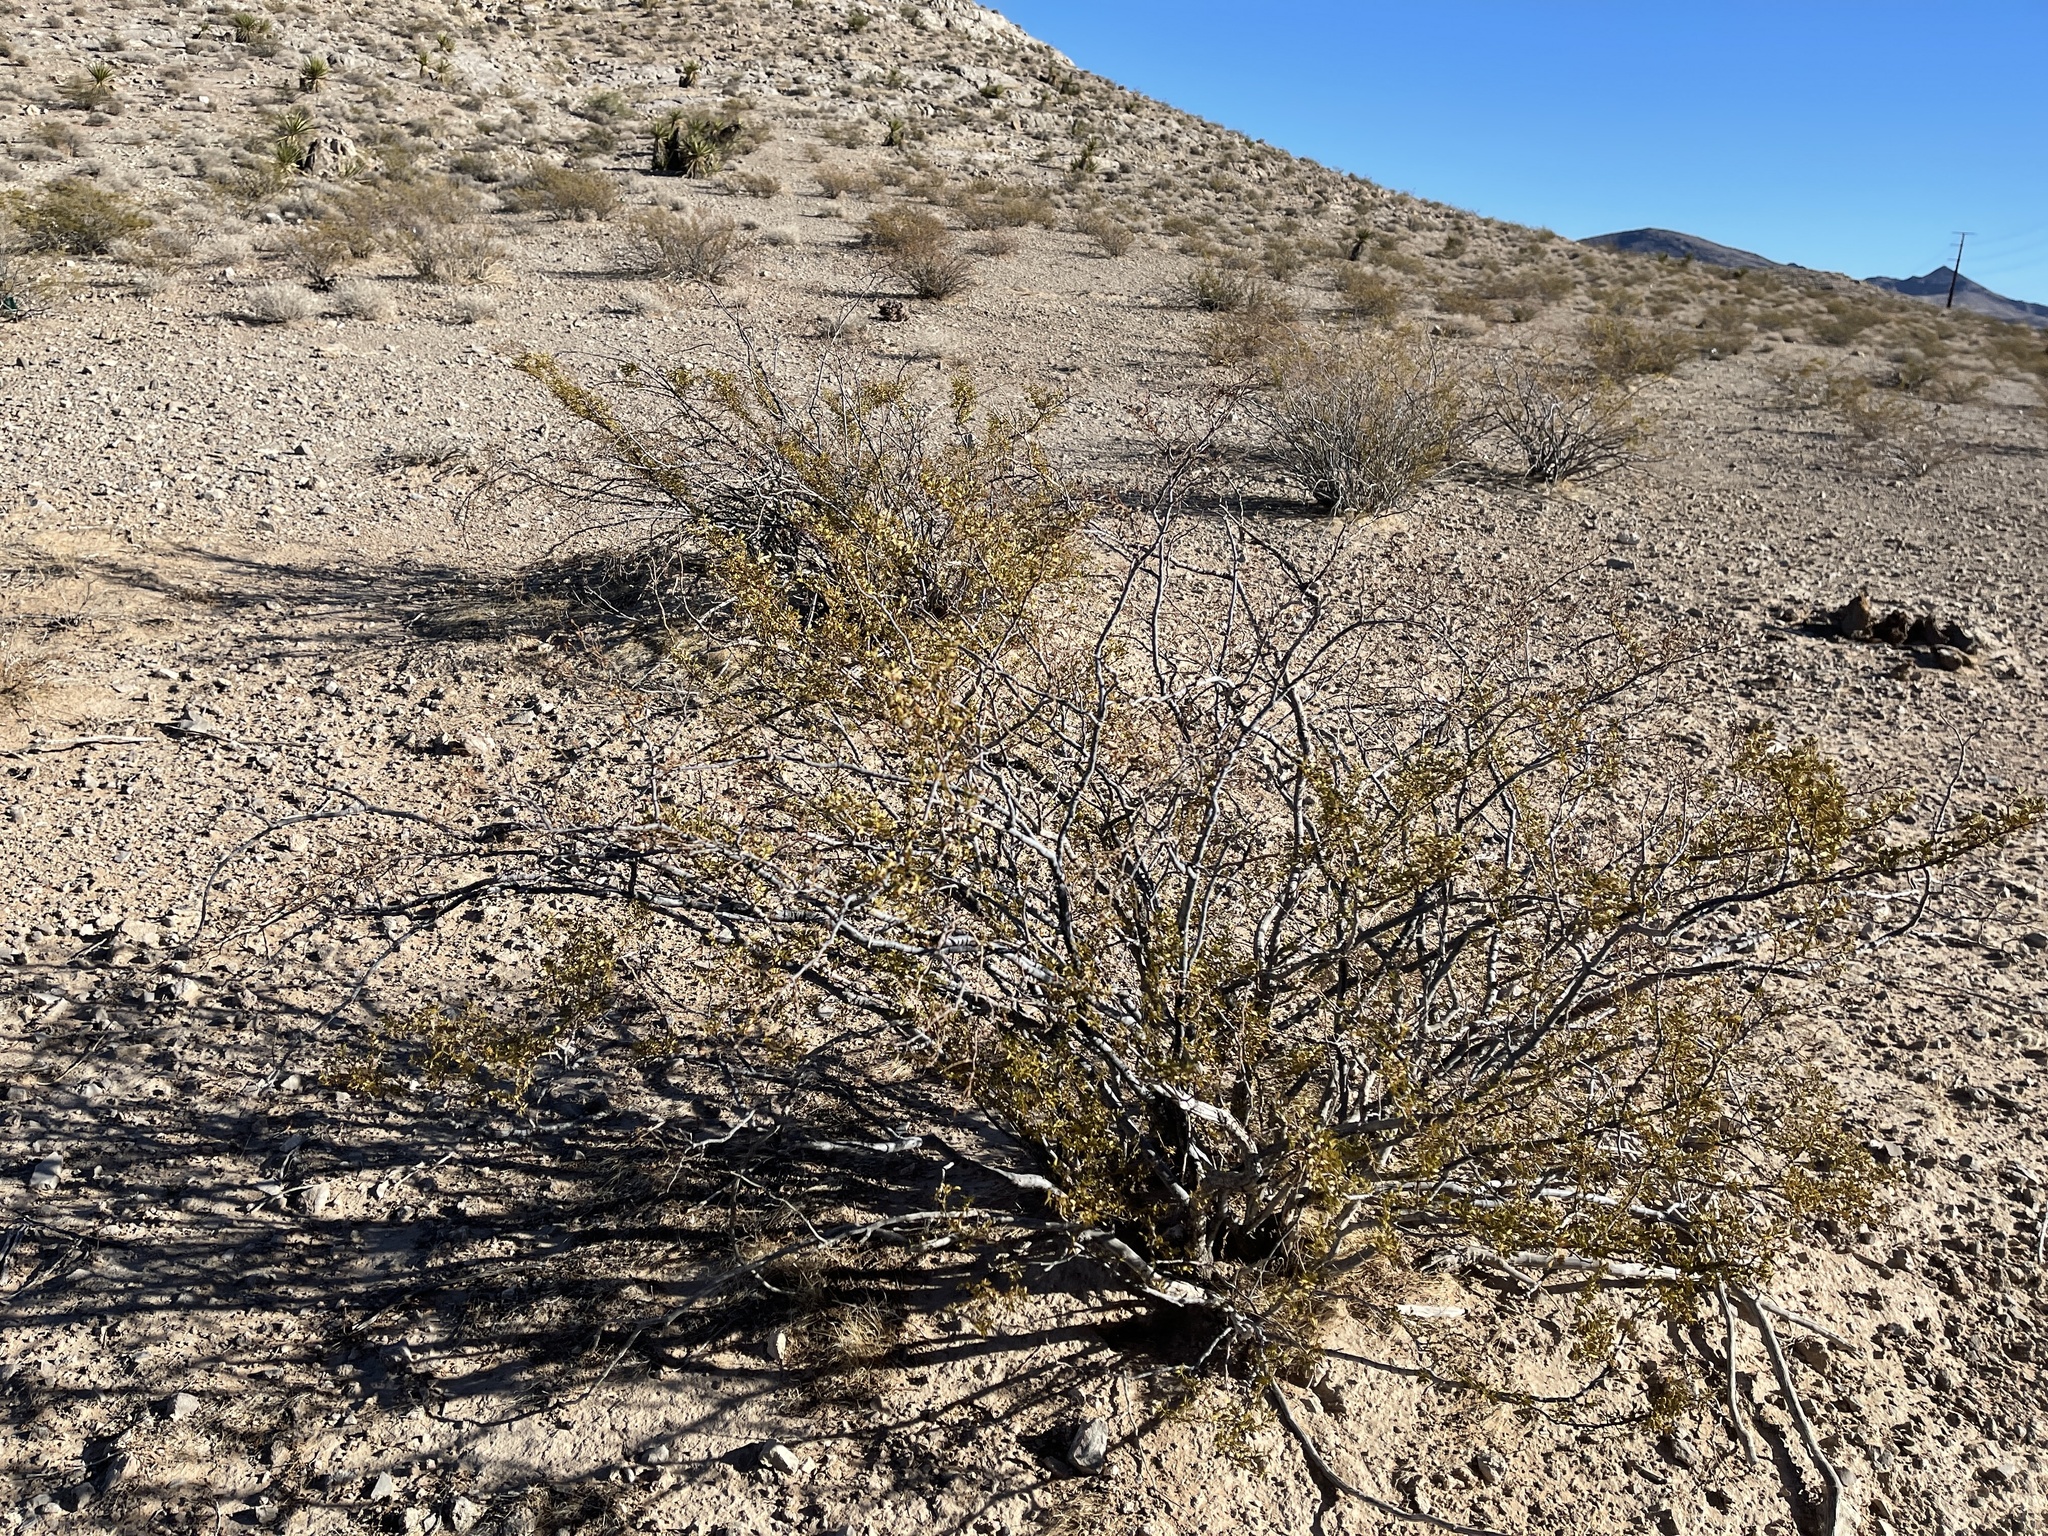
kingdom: Plantae
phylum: Tracheophyta
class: Magnoliopsida
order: Zygophyllales
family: Zygophyllaceae
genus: Larrea
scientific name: Larrea tridentata
